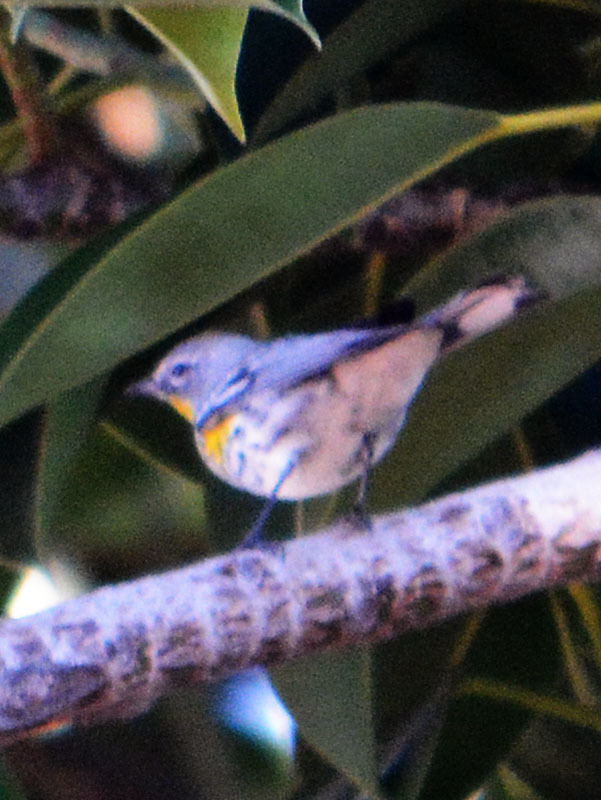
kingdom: Animalia
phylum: Chordata
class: Aves
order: Passeriformes
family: Parulidae
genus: Setophaga
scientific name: Setophaga auduboni
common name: Audubon's warbler
